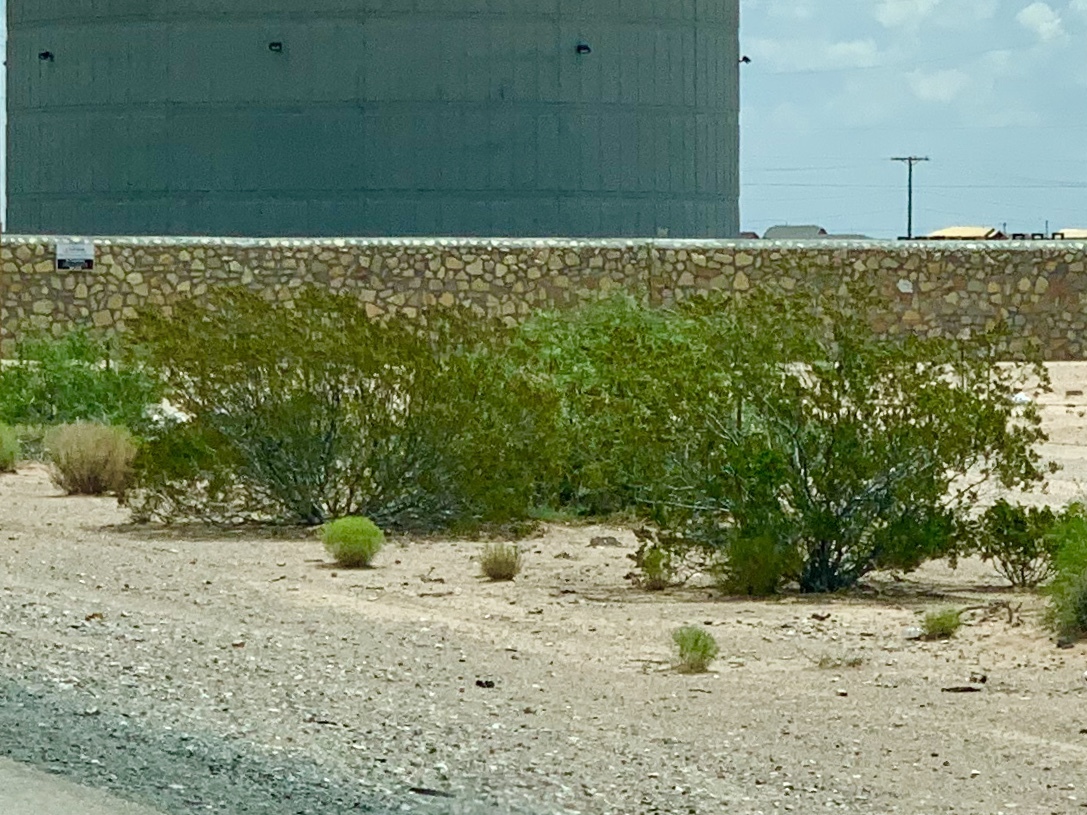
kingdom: Plantae
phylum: Tracheophyta
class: Magnoliopsida
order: Zygophyllales
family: Zygophyllaceae
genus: Larrea
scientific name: Larrea tridentata
